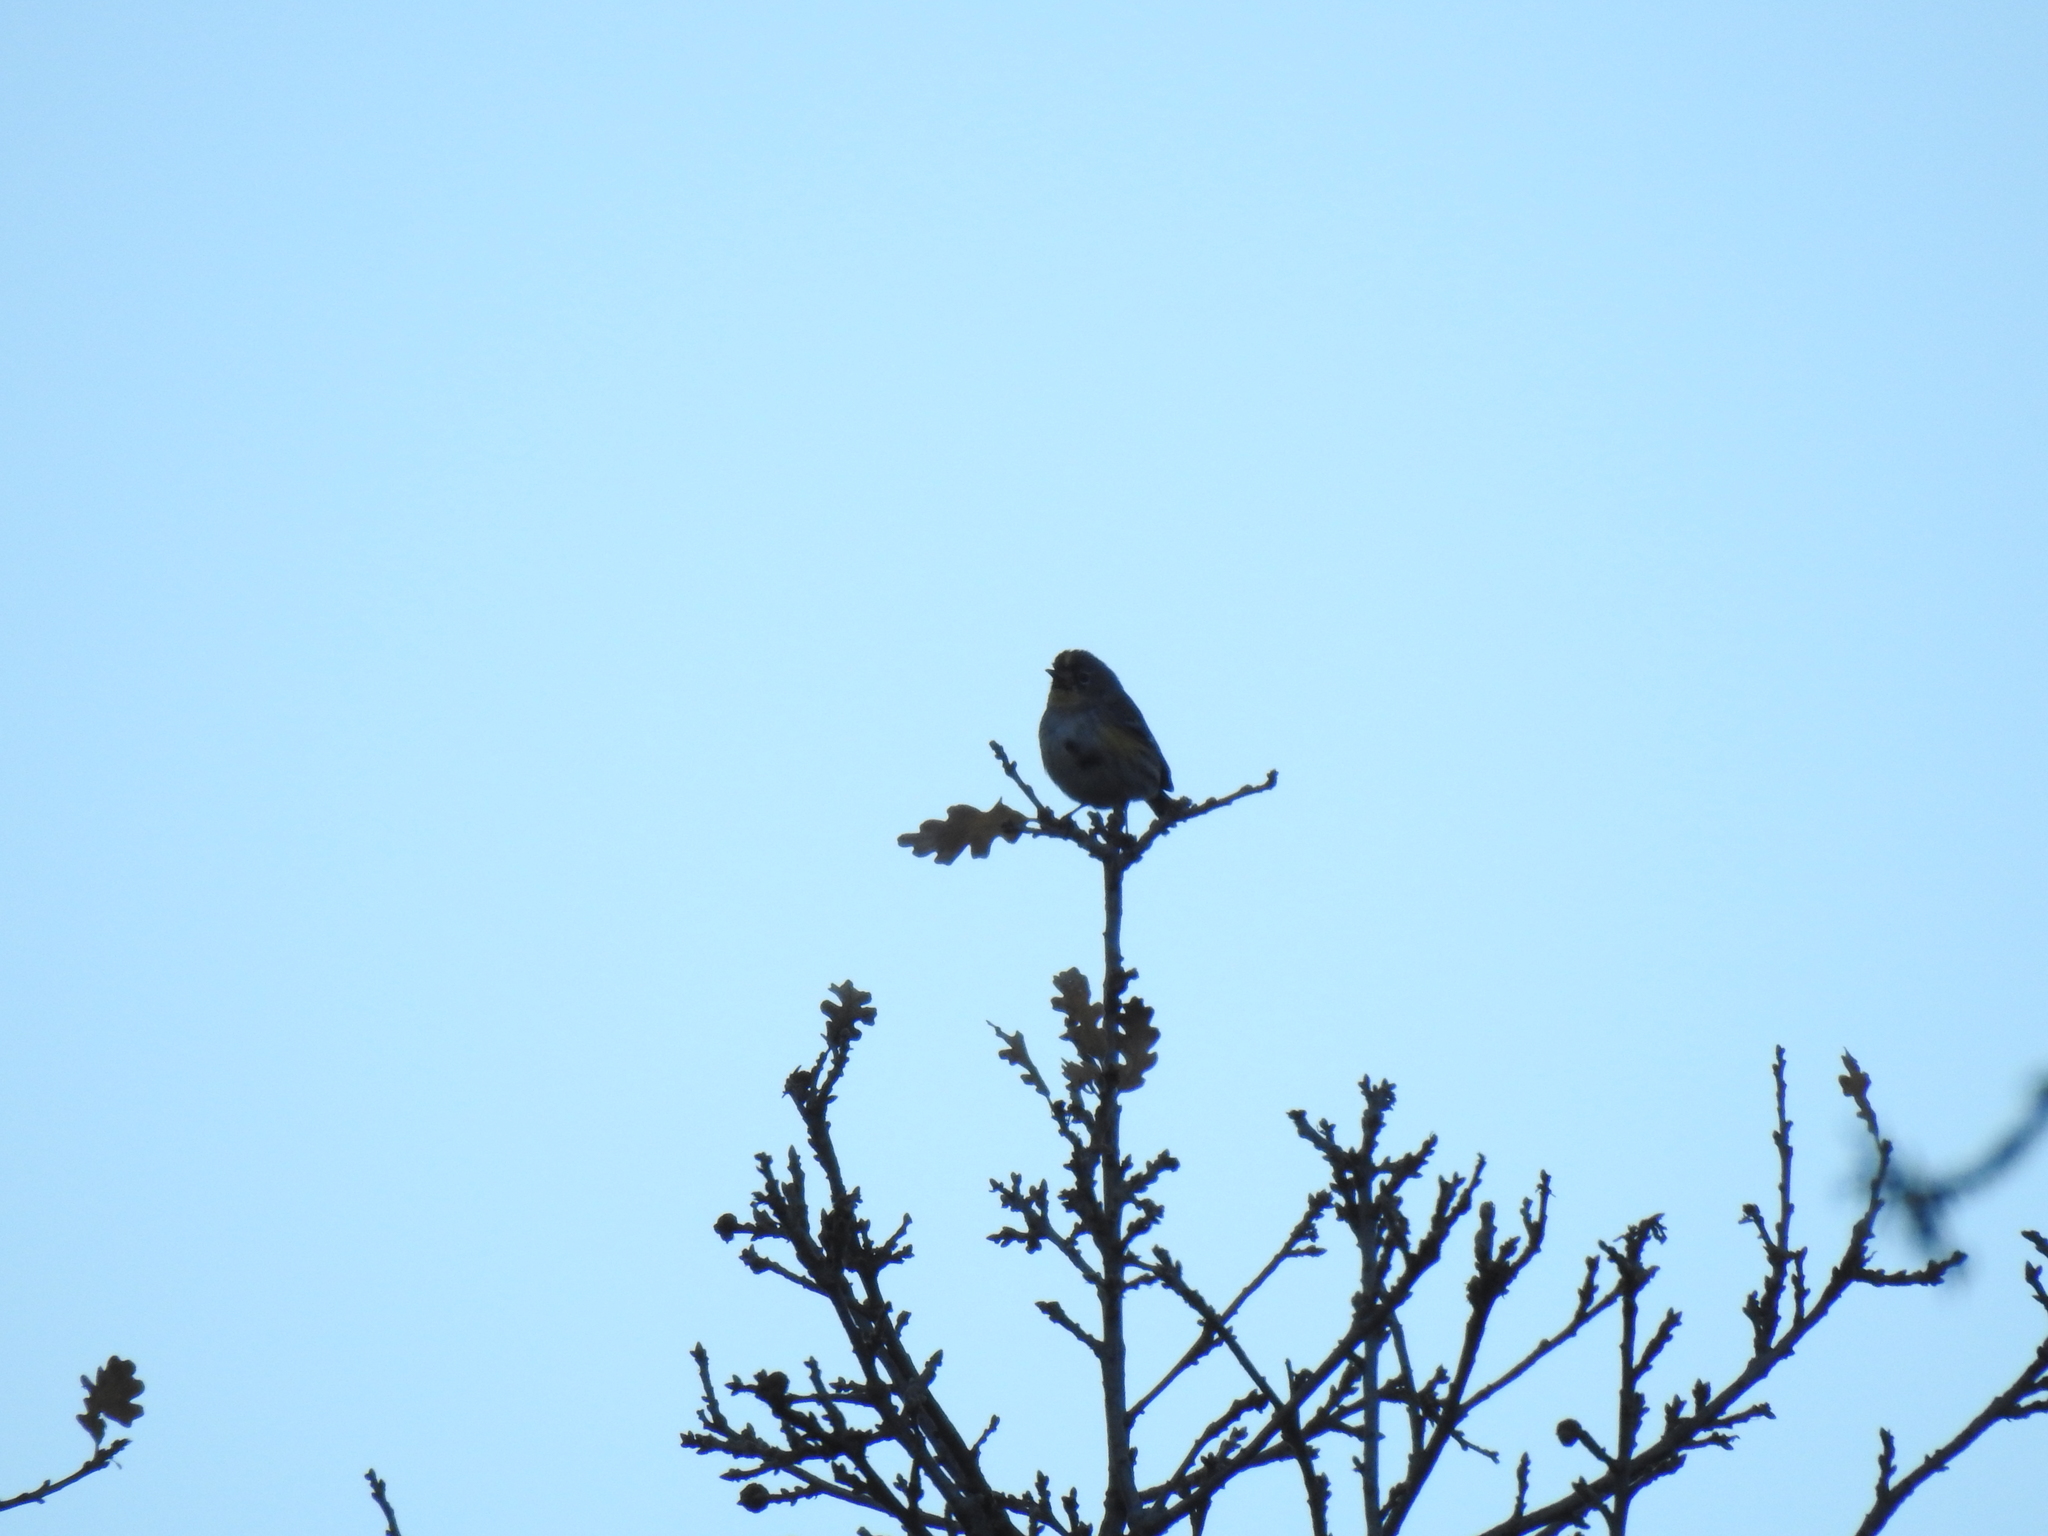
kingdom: Animalia
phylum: Chordata
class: Aves
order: Passeriformes
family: Parulidae
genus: Setophaga
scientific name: Setophaga coronata
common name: Myrtle warbler
